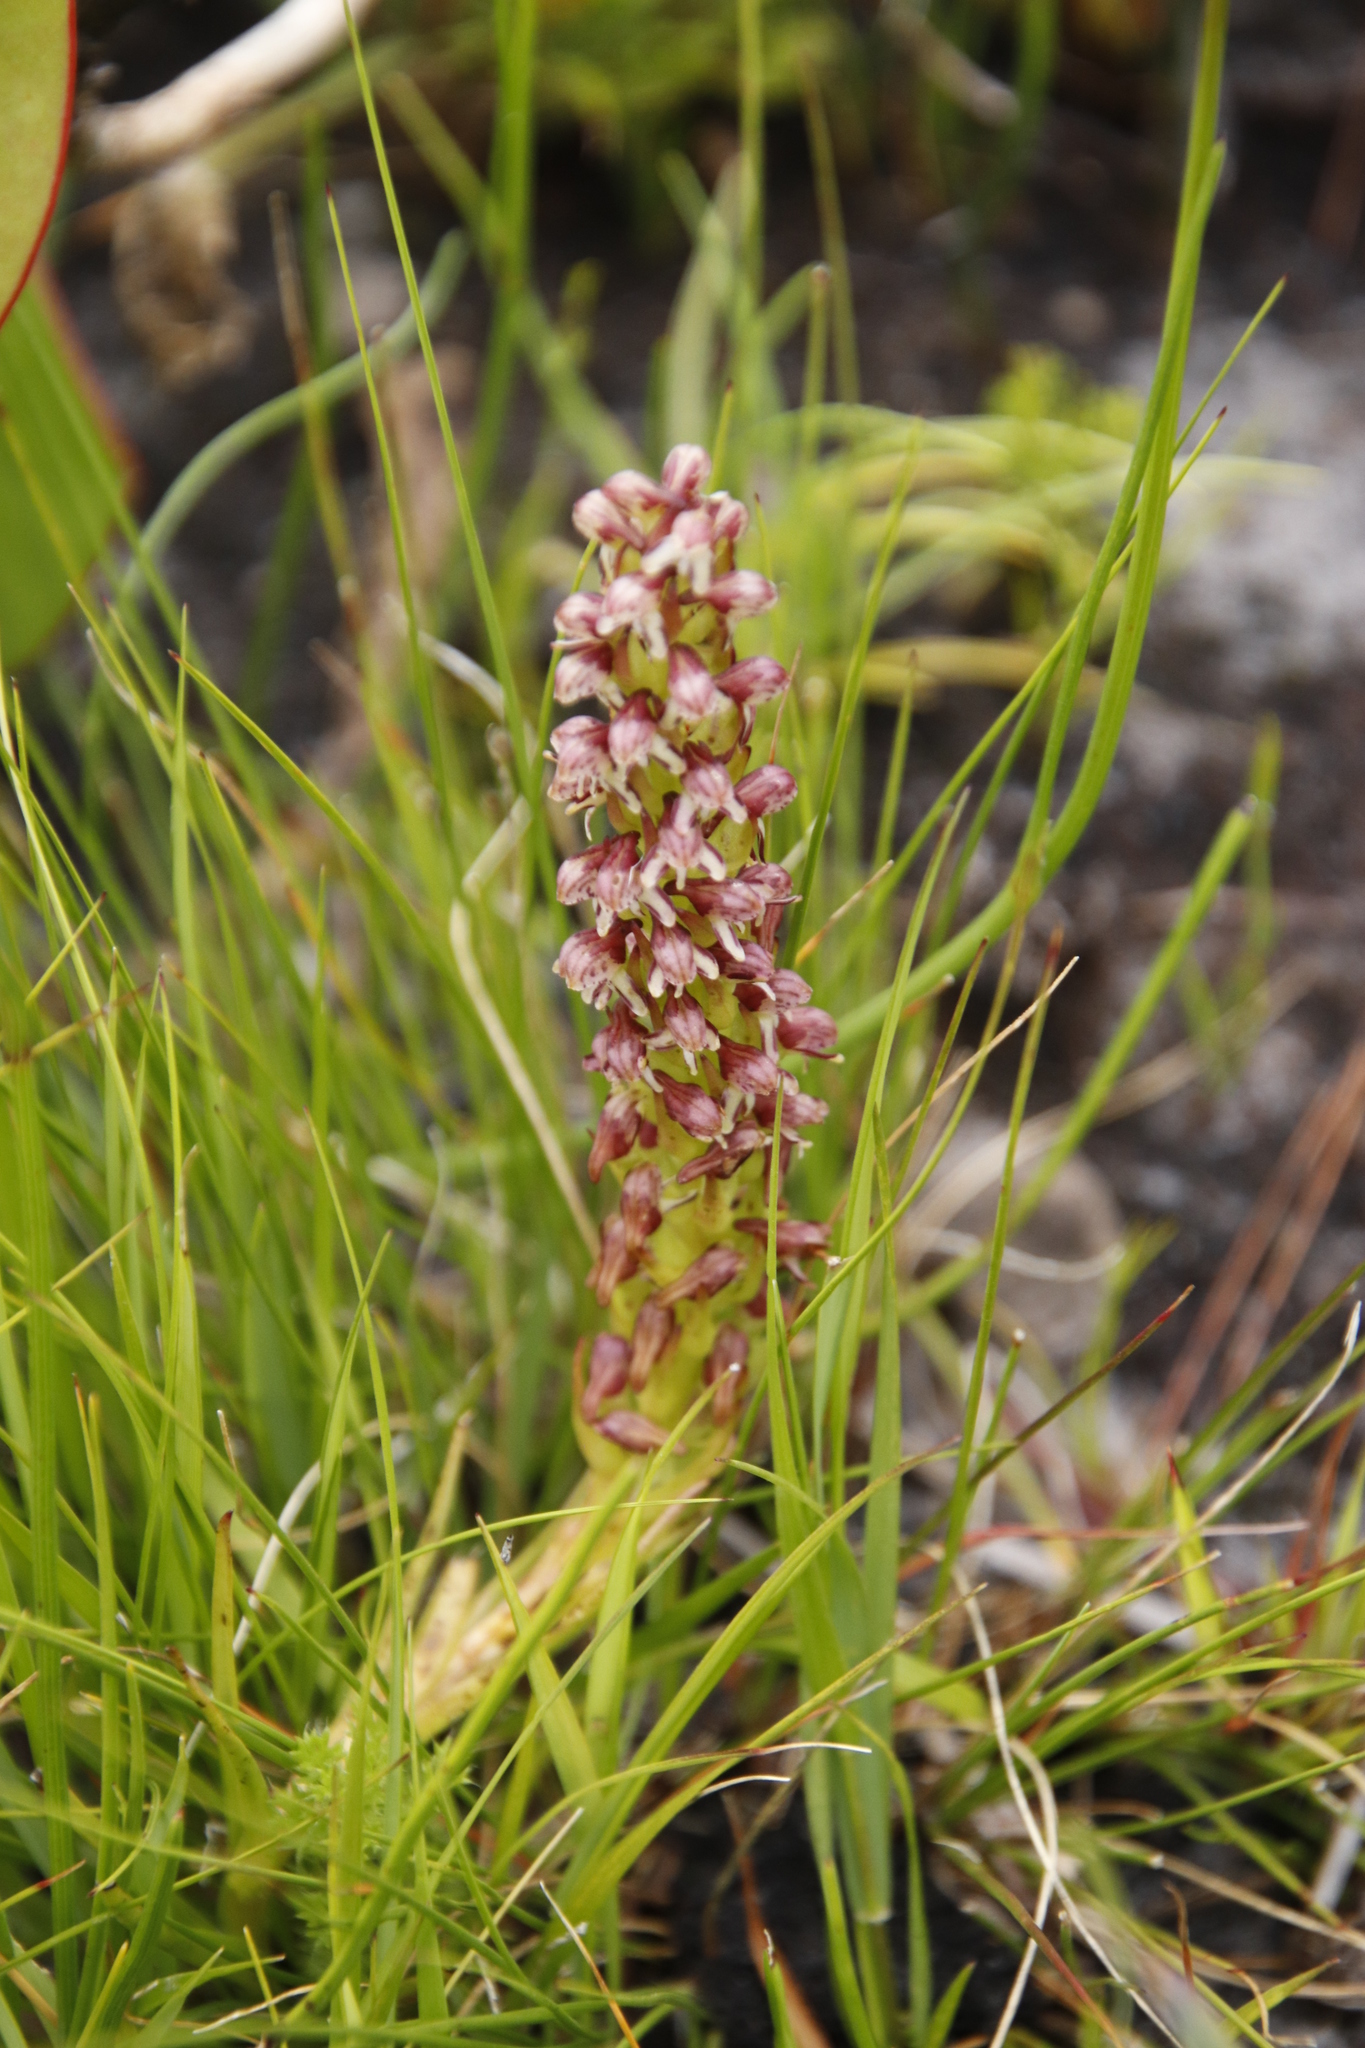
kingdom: Plantae
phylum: Tracheophyta
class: Liliopsida
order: Asparagales
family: Orchidaceae
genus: Disa
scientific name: Disa obtusa
